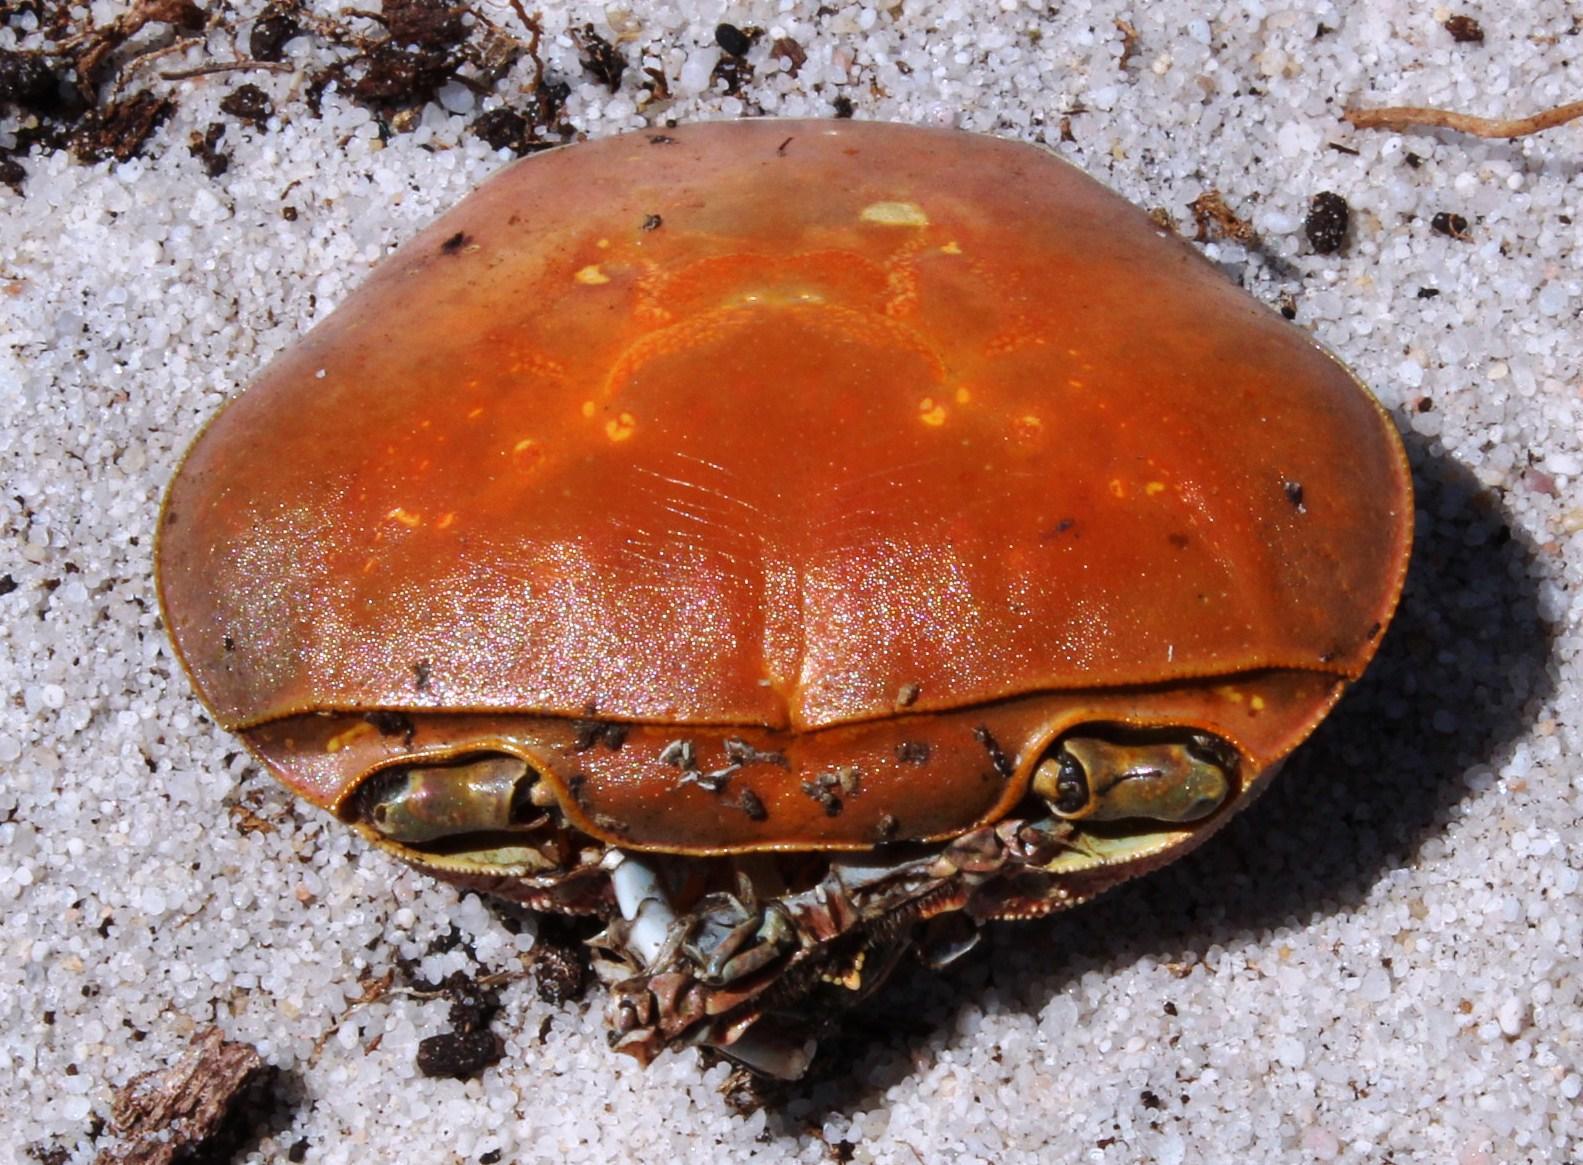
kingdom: Animalia
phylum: Arthropoda
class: Malacostraca
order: Decapoda
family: Potamonautidae
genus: Potamonautes
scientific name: Potamonautes perlatus
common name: Cape river crab
